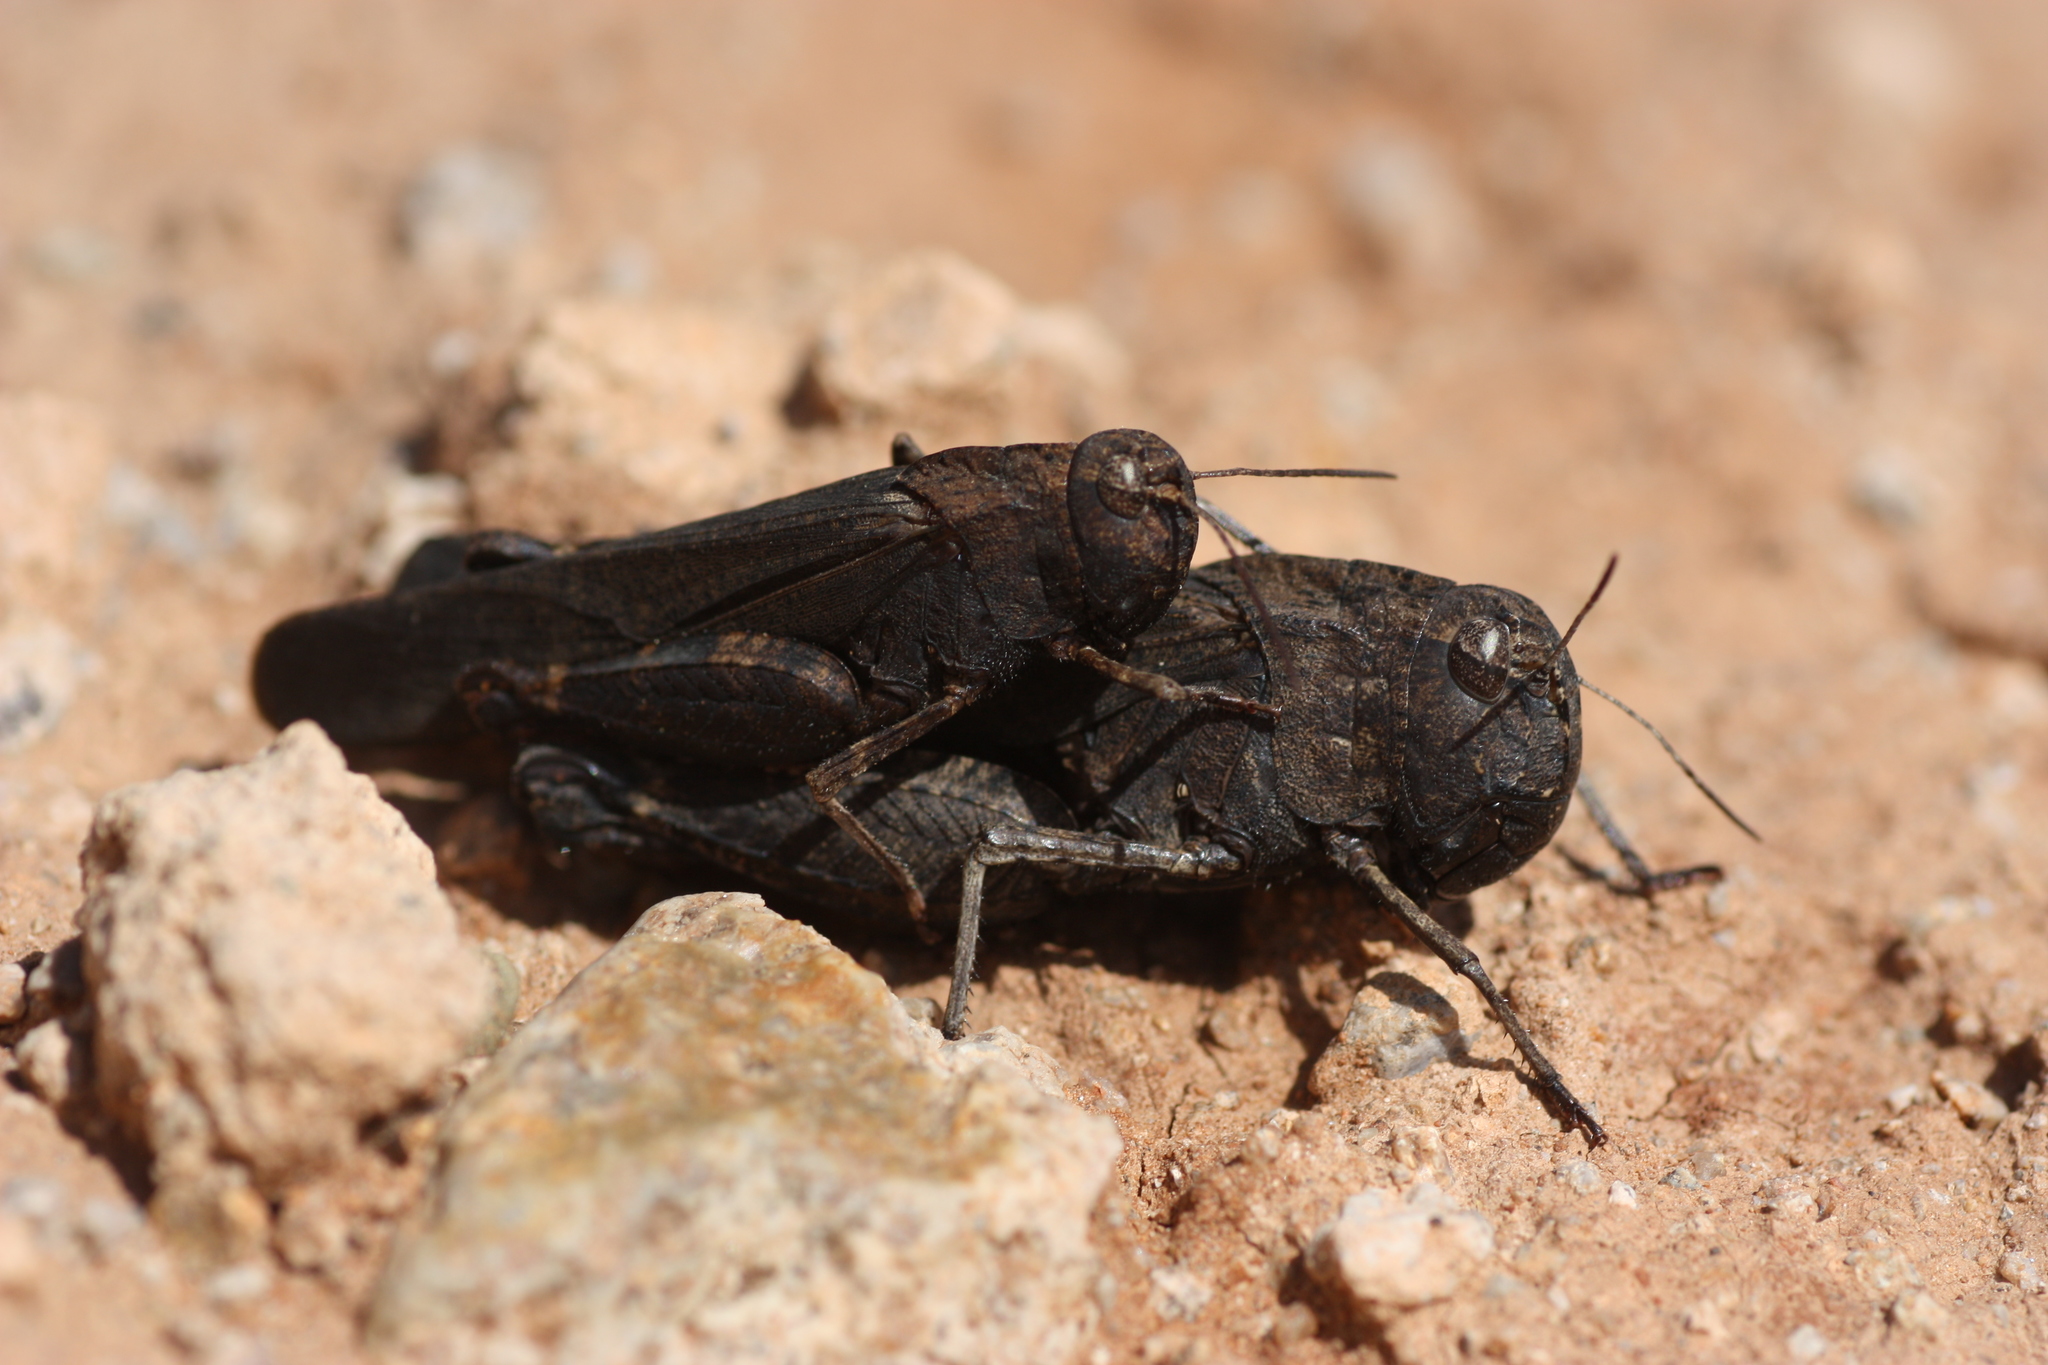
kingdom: Animalia
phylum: Arthropoda
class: Insecta
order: Orthoptera
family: Acrididae
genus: Arphia
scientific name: Arphia pseudo-nietana
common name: Red-winged grasshopper
